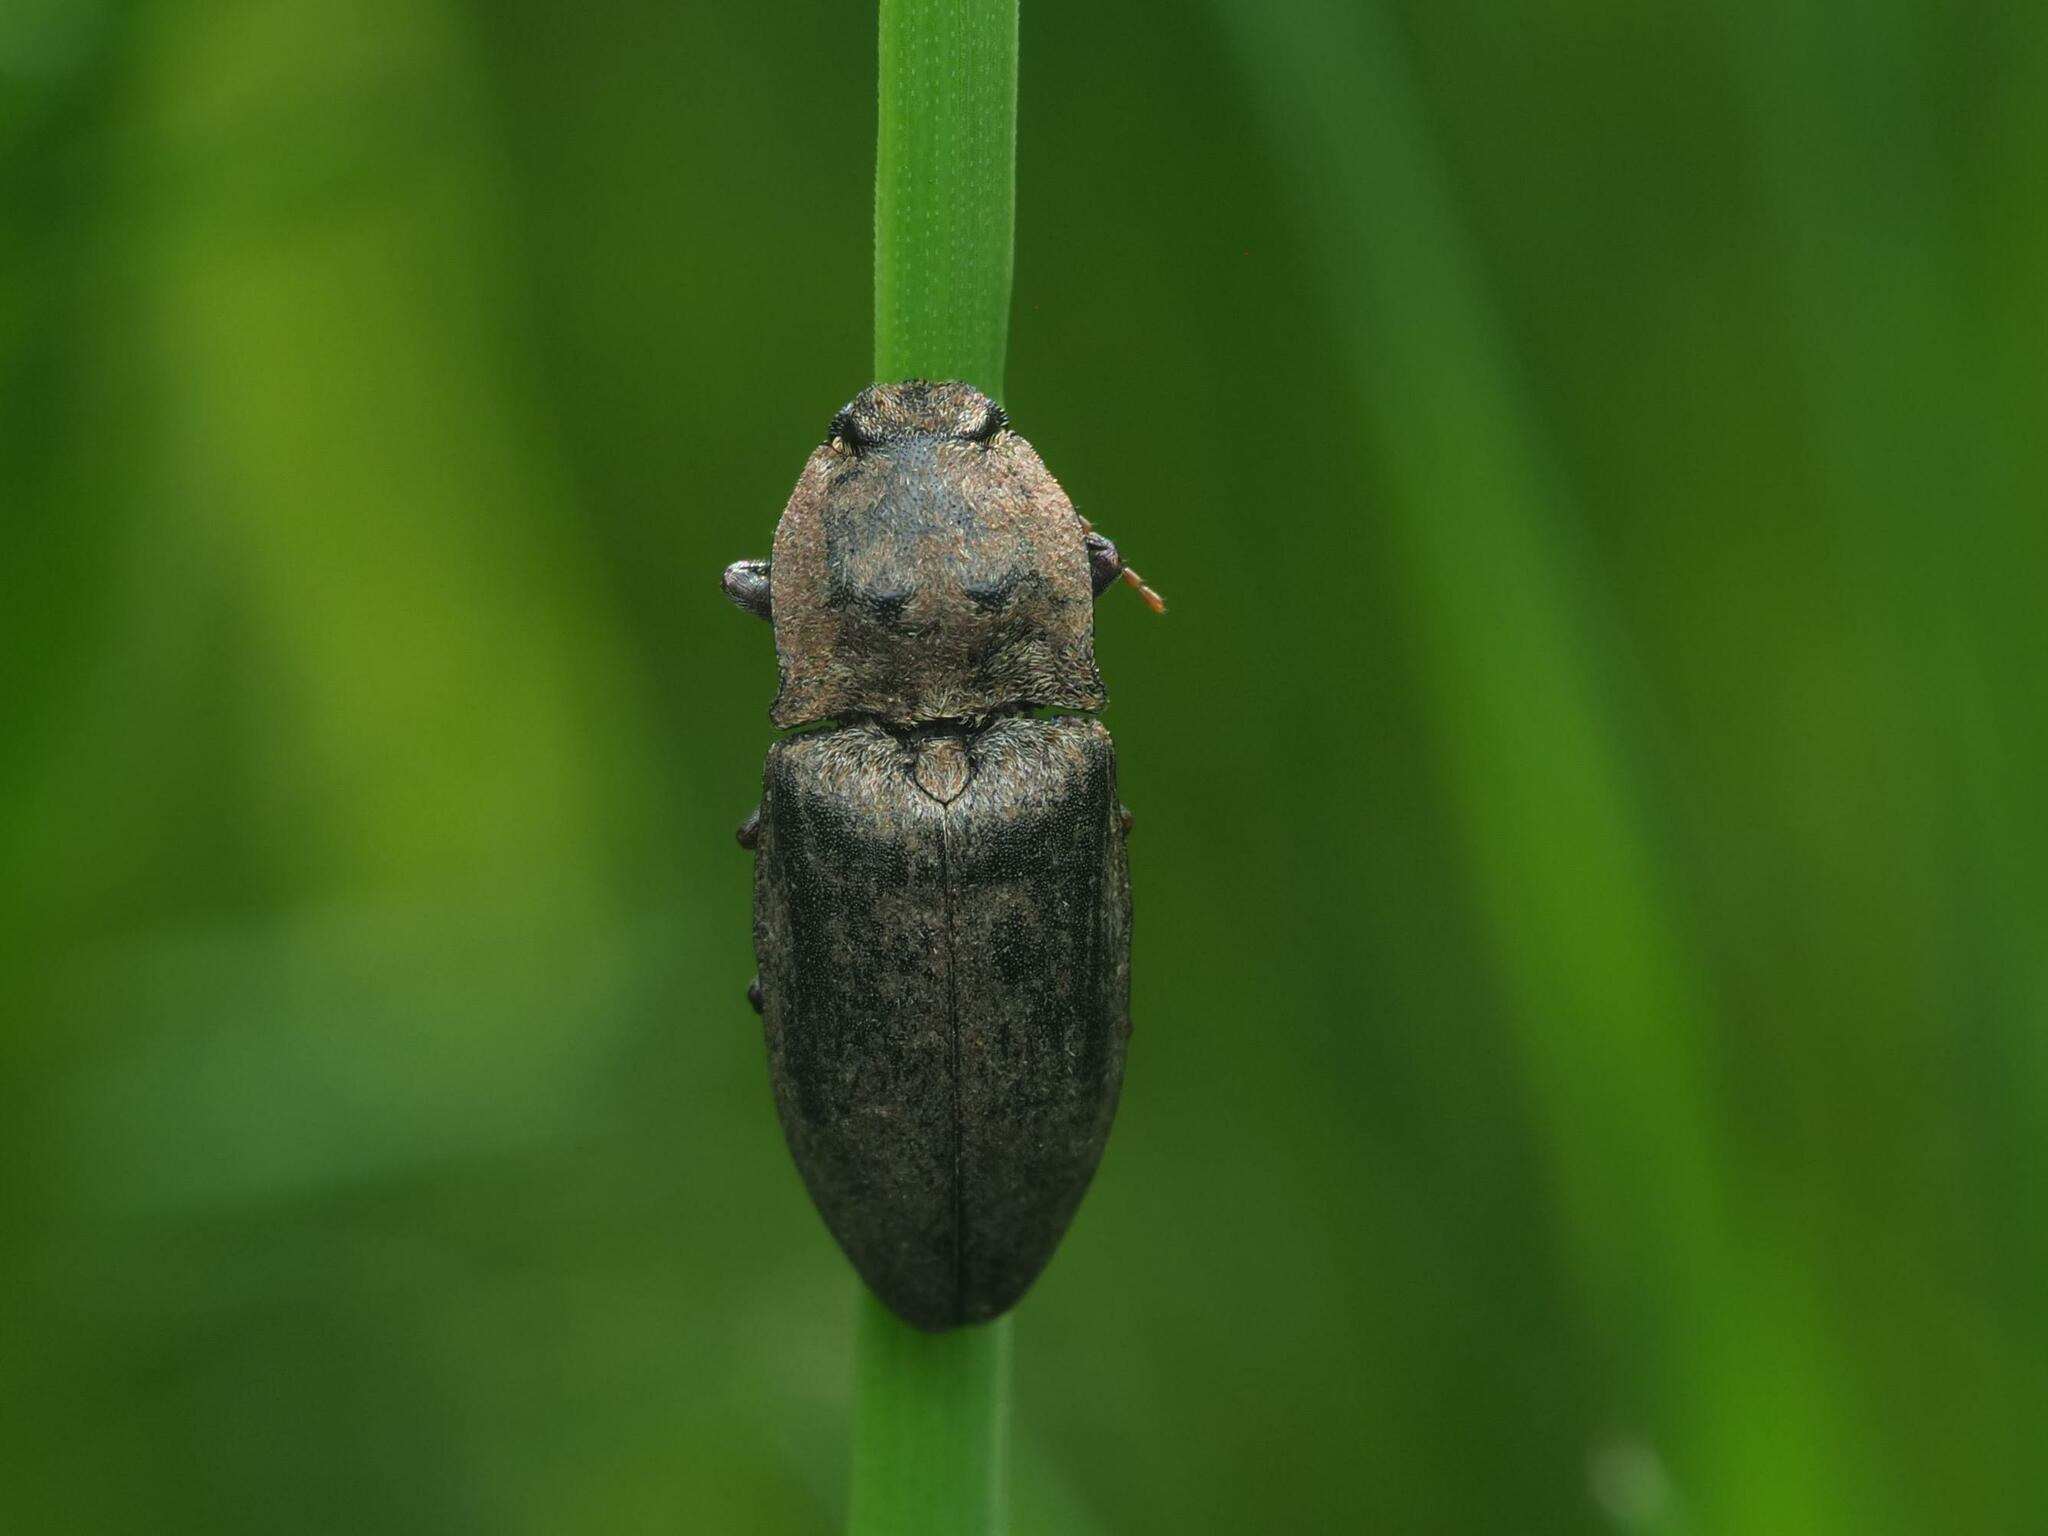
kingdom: Animalia
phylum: Arthropoda
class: Insecta
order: Coleoptera
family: Elateridae
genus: Agrypnus
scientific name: Agrypnus murinus
